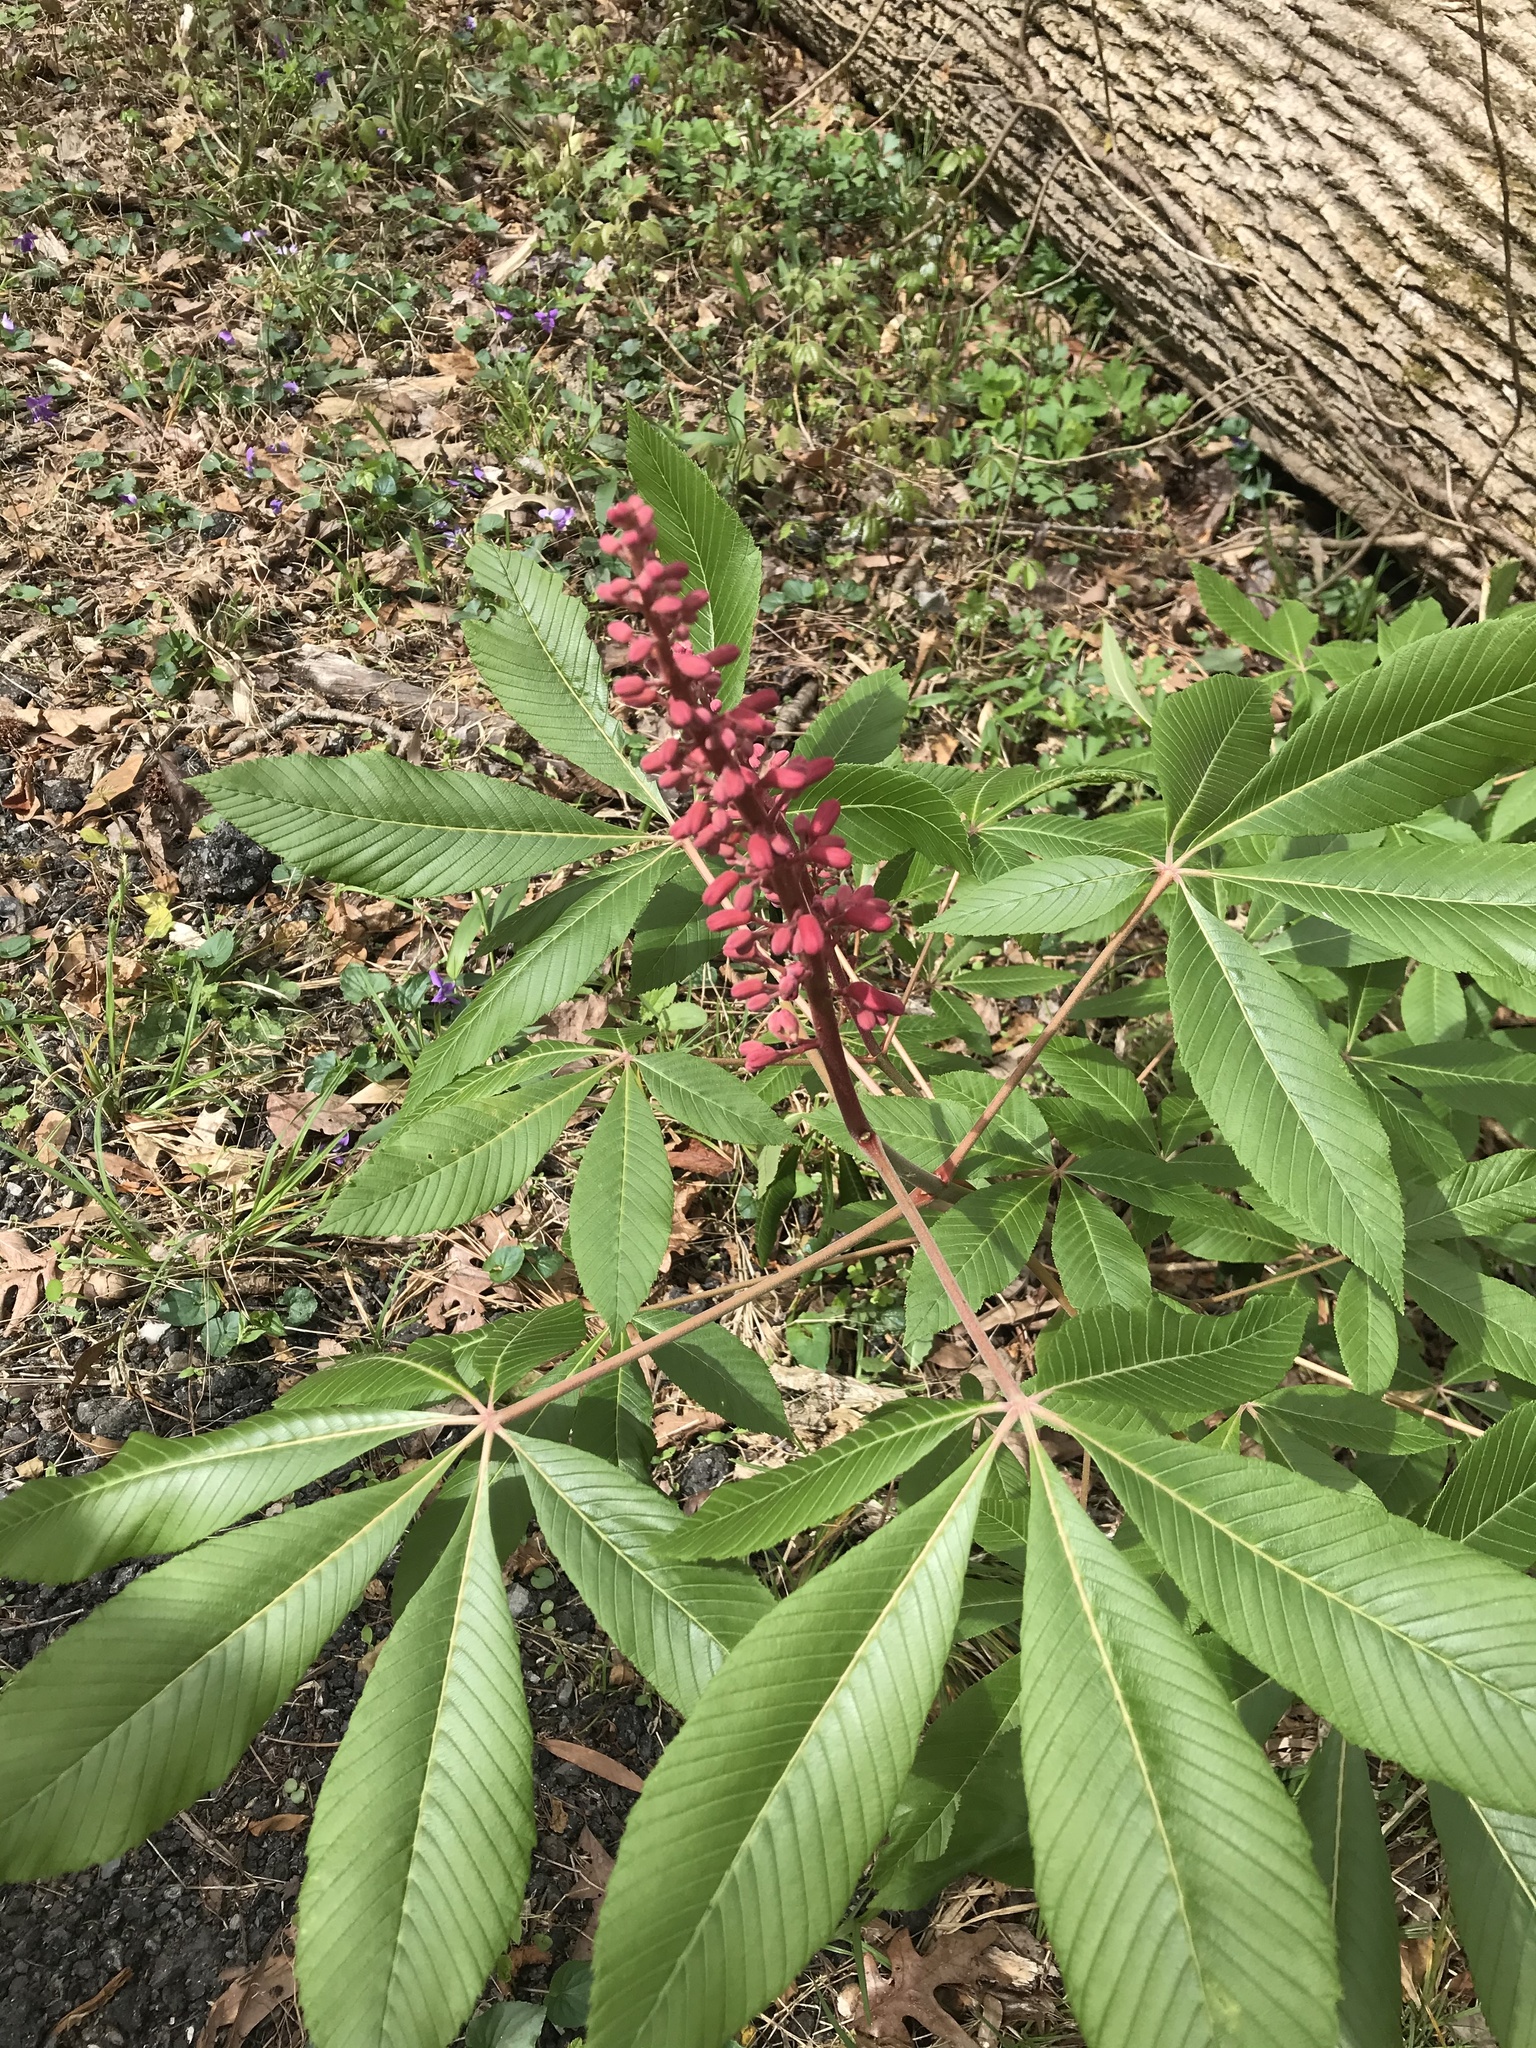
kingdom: Plantae
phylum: Tracheophyta
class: Magnoliopsida
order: Sapindales
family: Sapindaceae
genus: Aesculus
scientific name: Aesculus pavia
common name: Red buckeye
